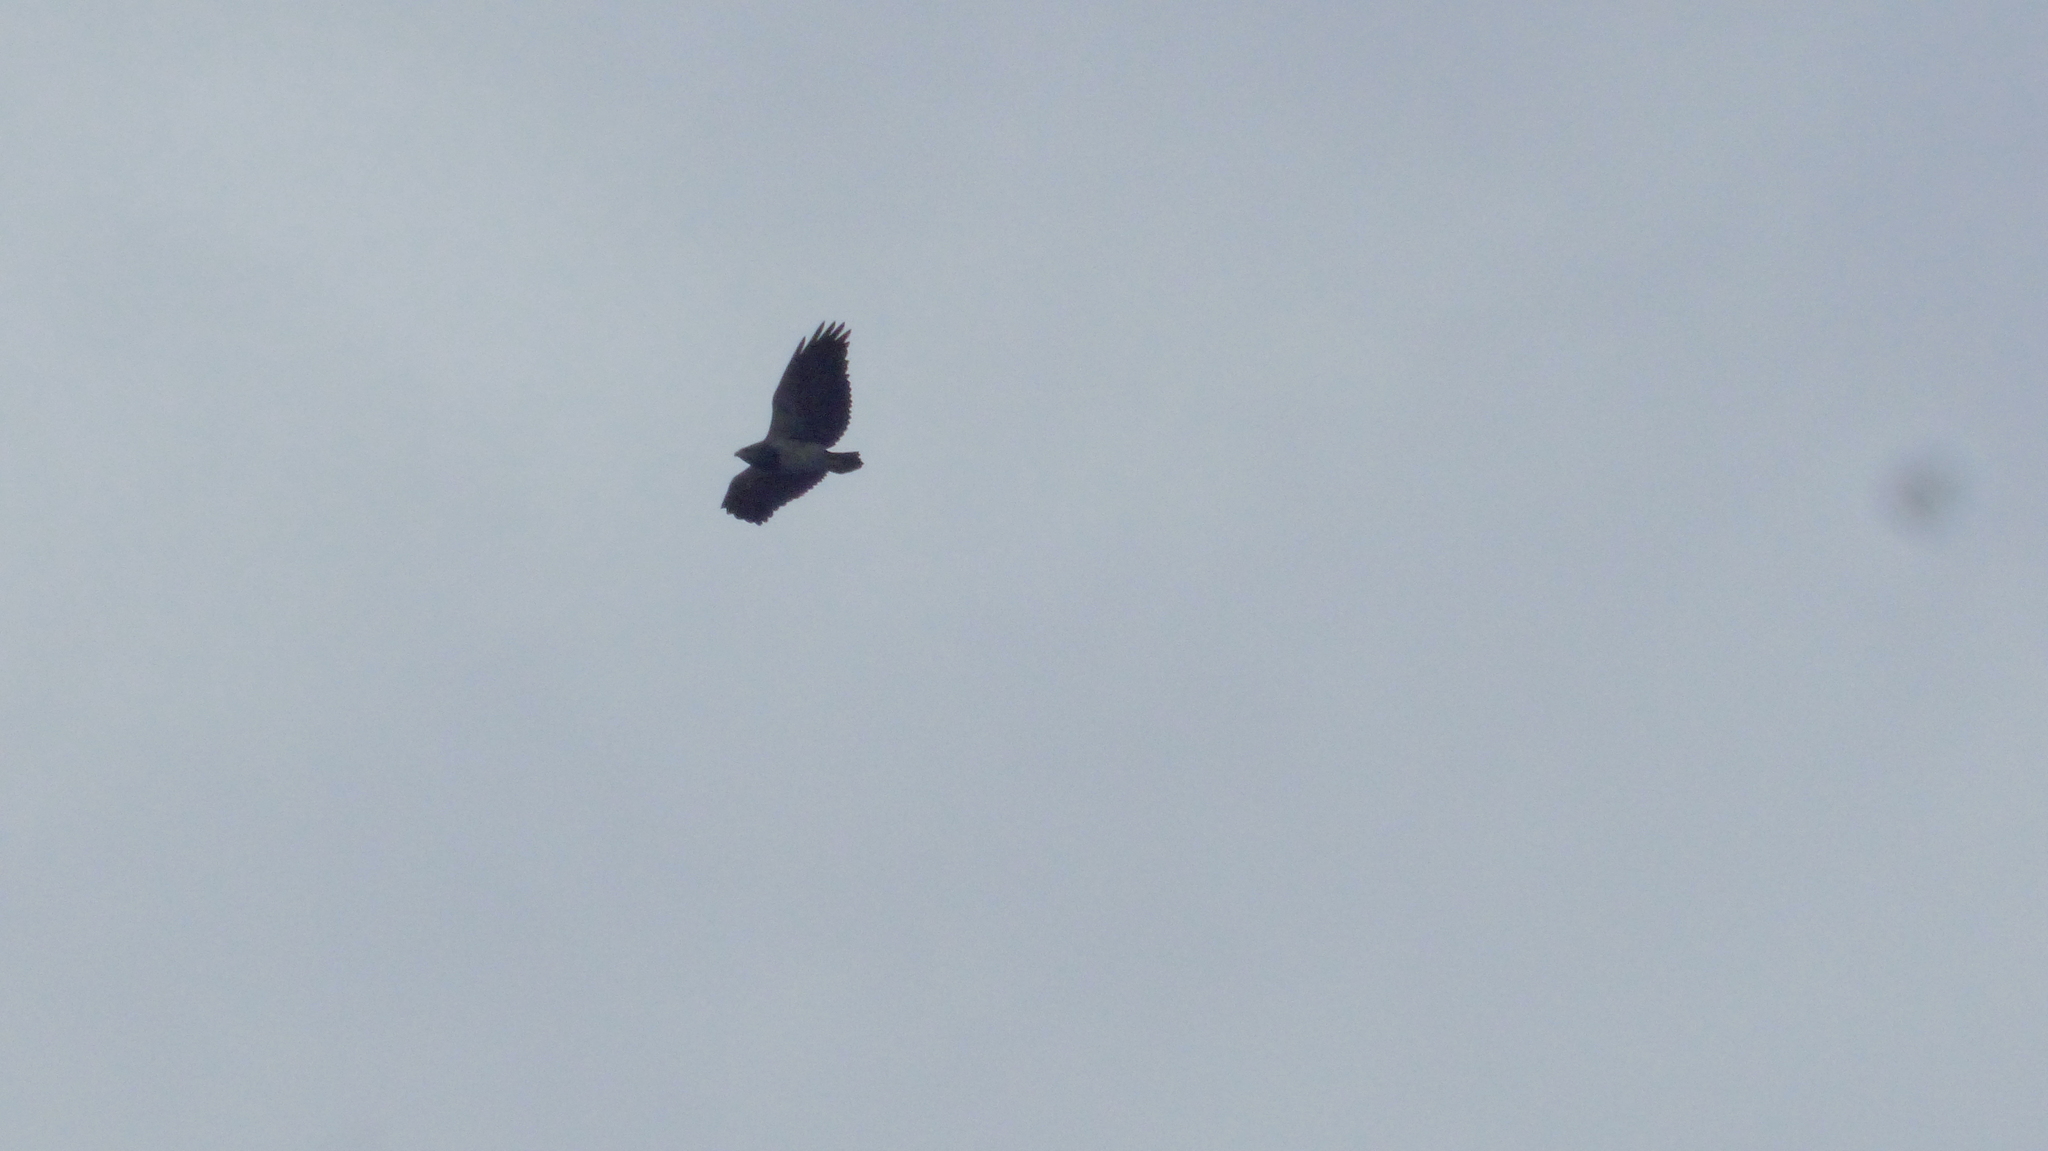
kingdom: Animalia
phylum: Chordata
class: Aves
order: Accipitriformes
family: Accipitridae
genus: Geranoaetus
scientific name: Geranoaetus melanoleucus
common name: Black-chested buzzard-eagle
